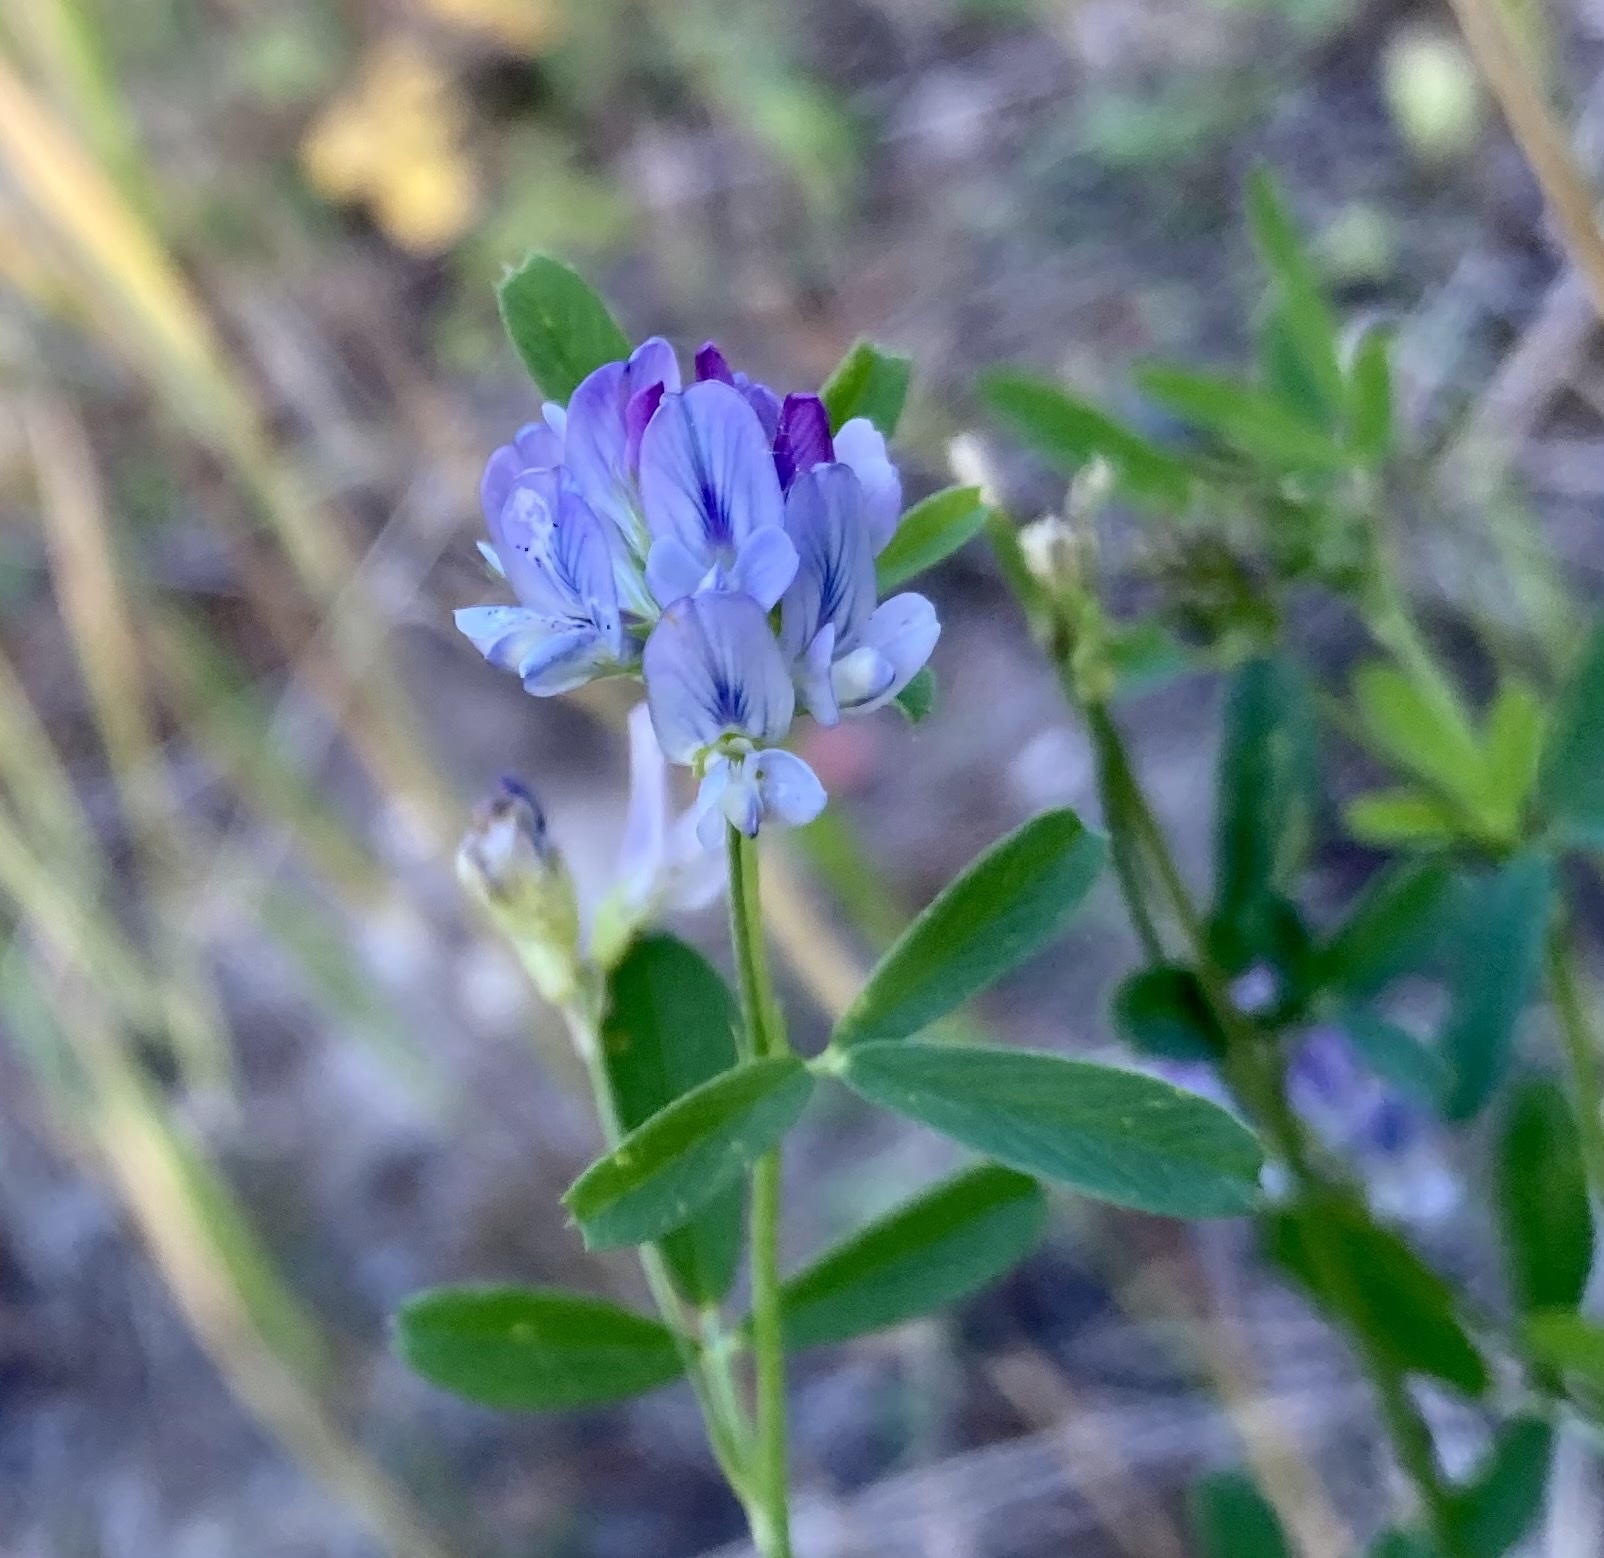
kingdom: Plantae
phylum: Tracheophyta
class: Magnoliopsida
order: Fabales
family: Fabaceae
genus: Medicago
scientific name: Medicago sativa
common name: Alfalfa
